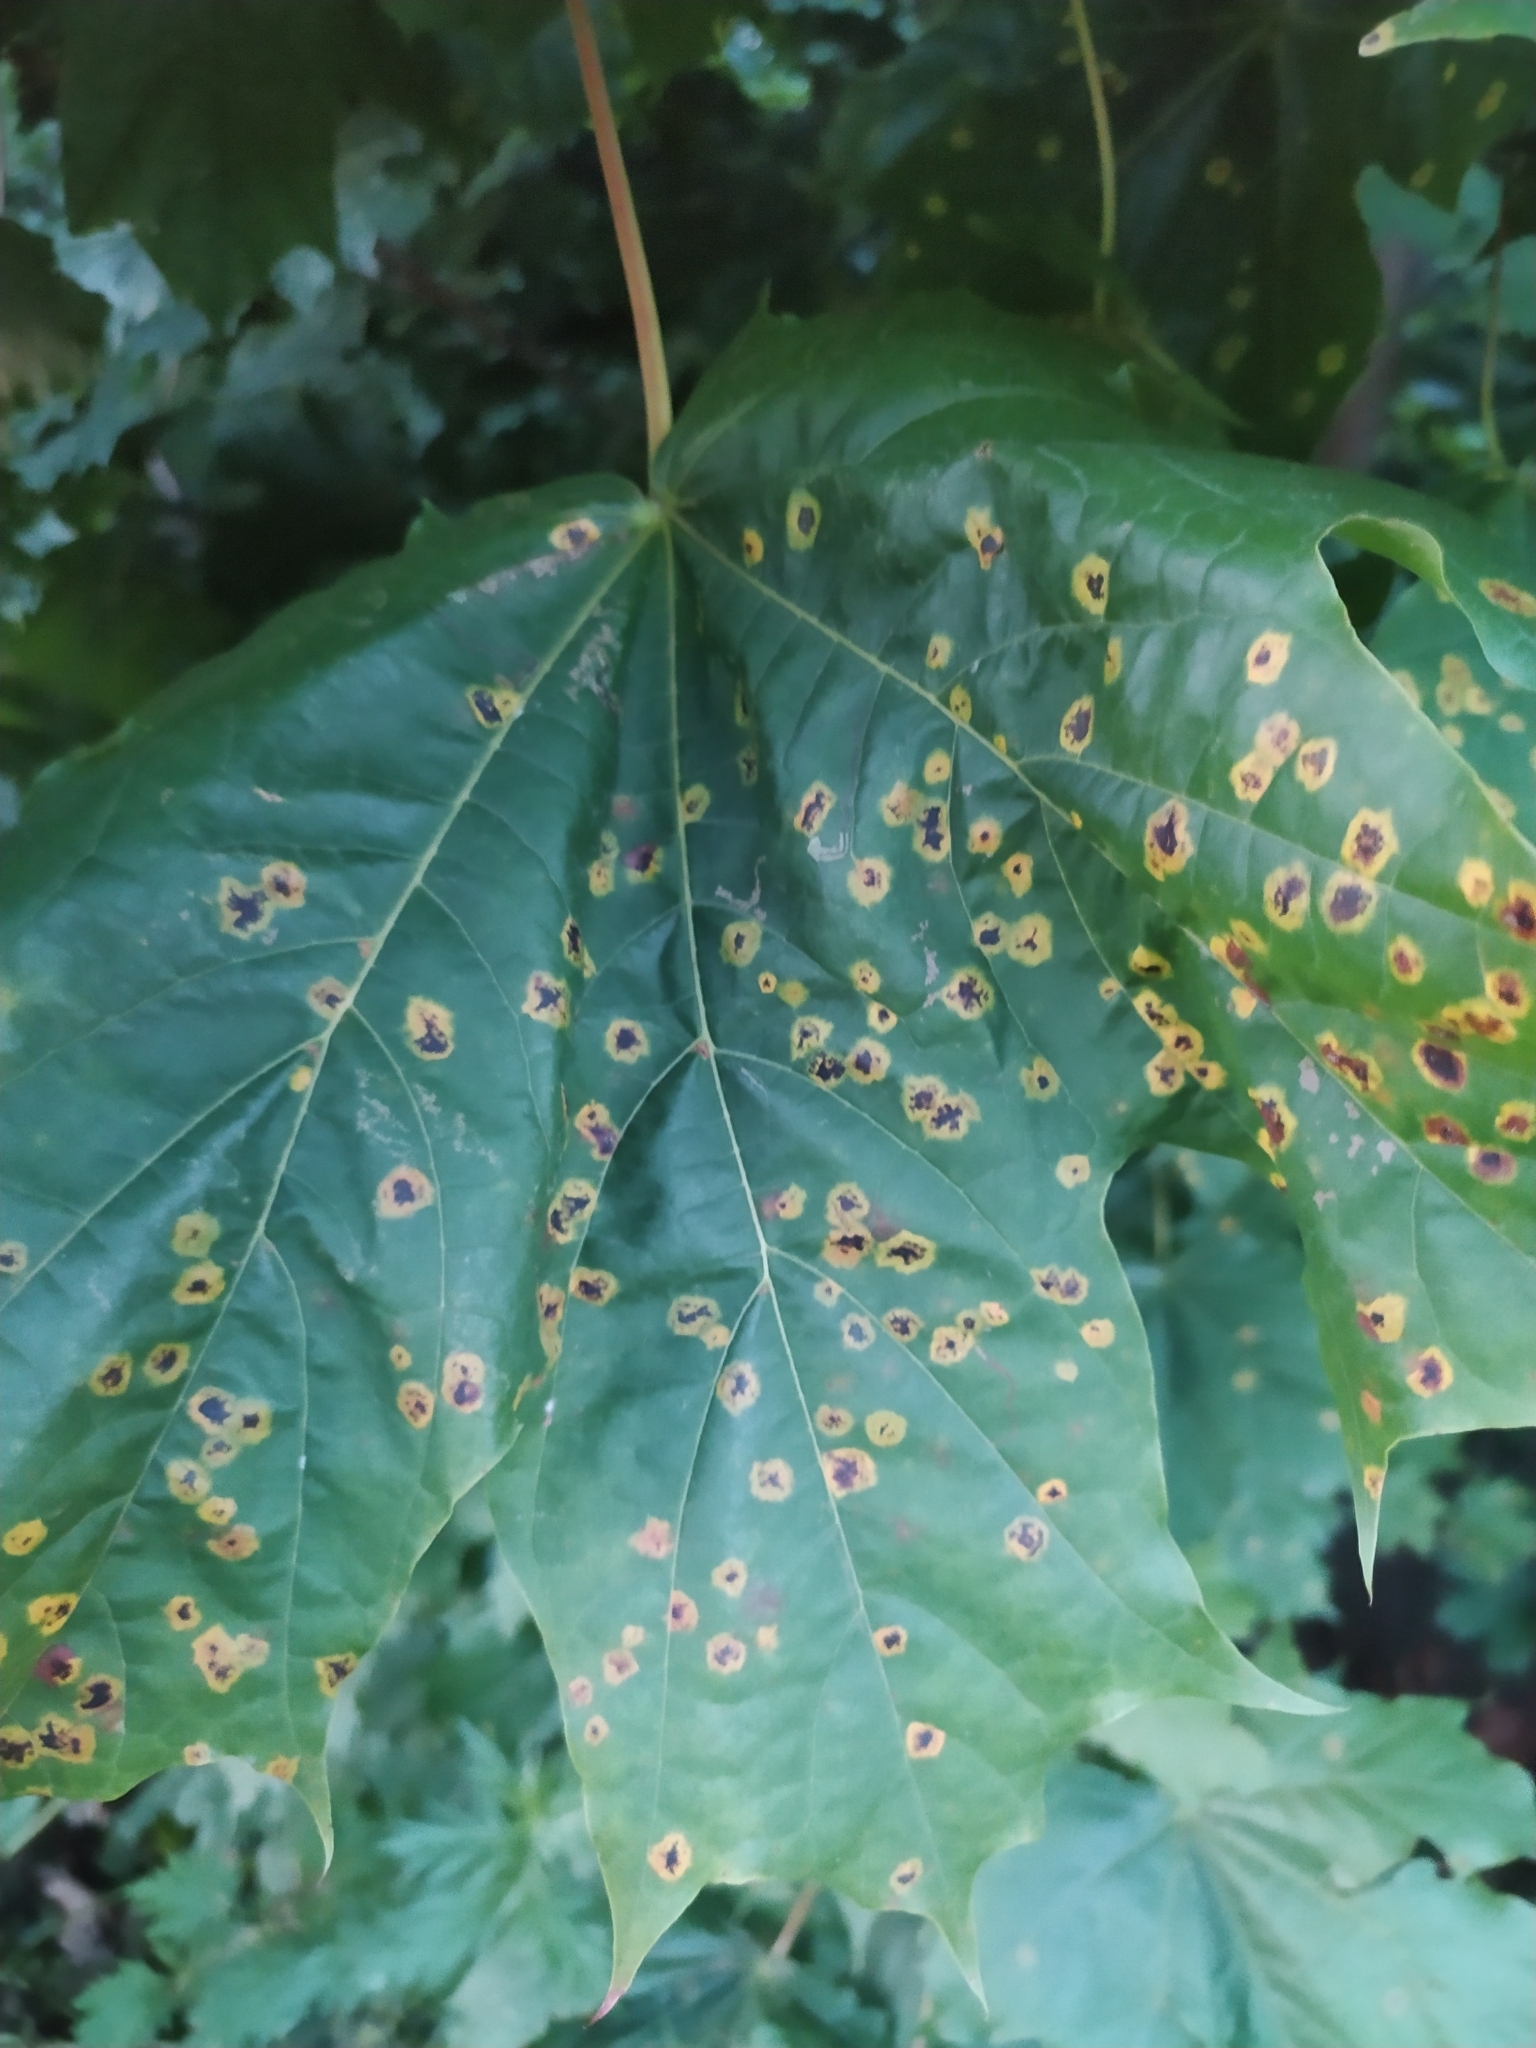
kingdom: Fungi
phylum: Ascomycota
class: Leotiomycetes
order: Rhytismatales
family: Rhytismataceae
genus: Rhytisma
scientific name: Rhytisma acerinum
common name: European tar spot
